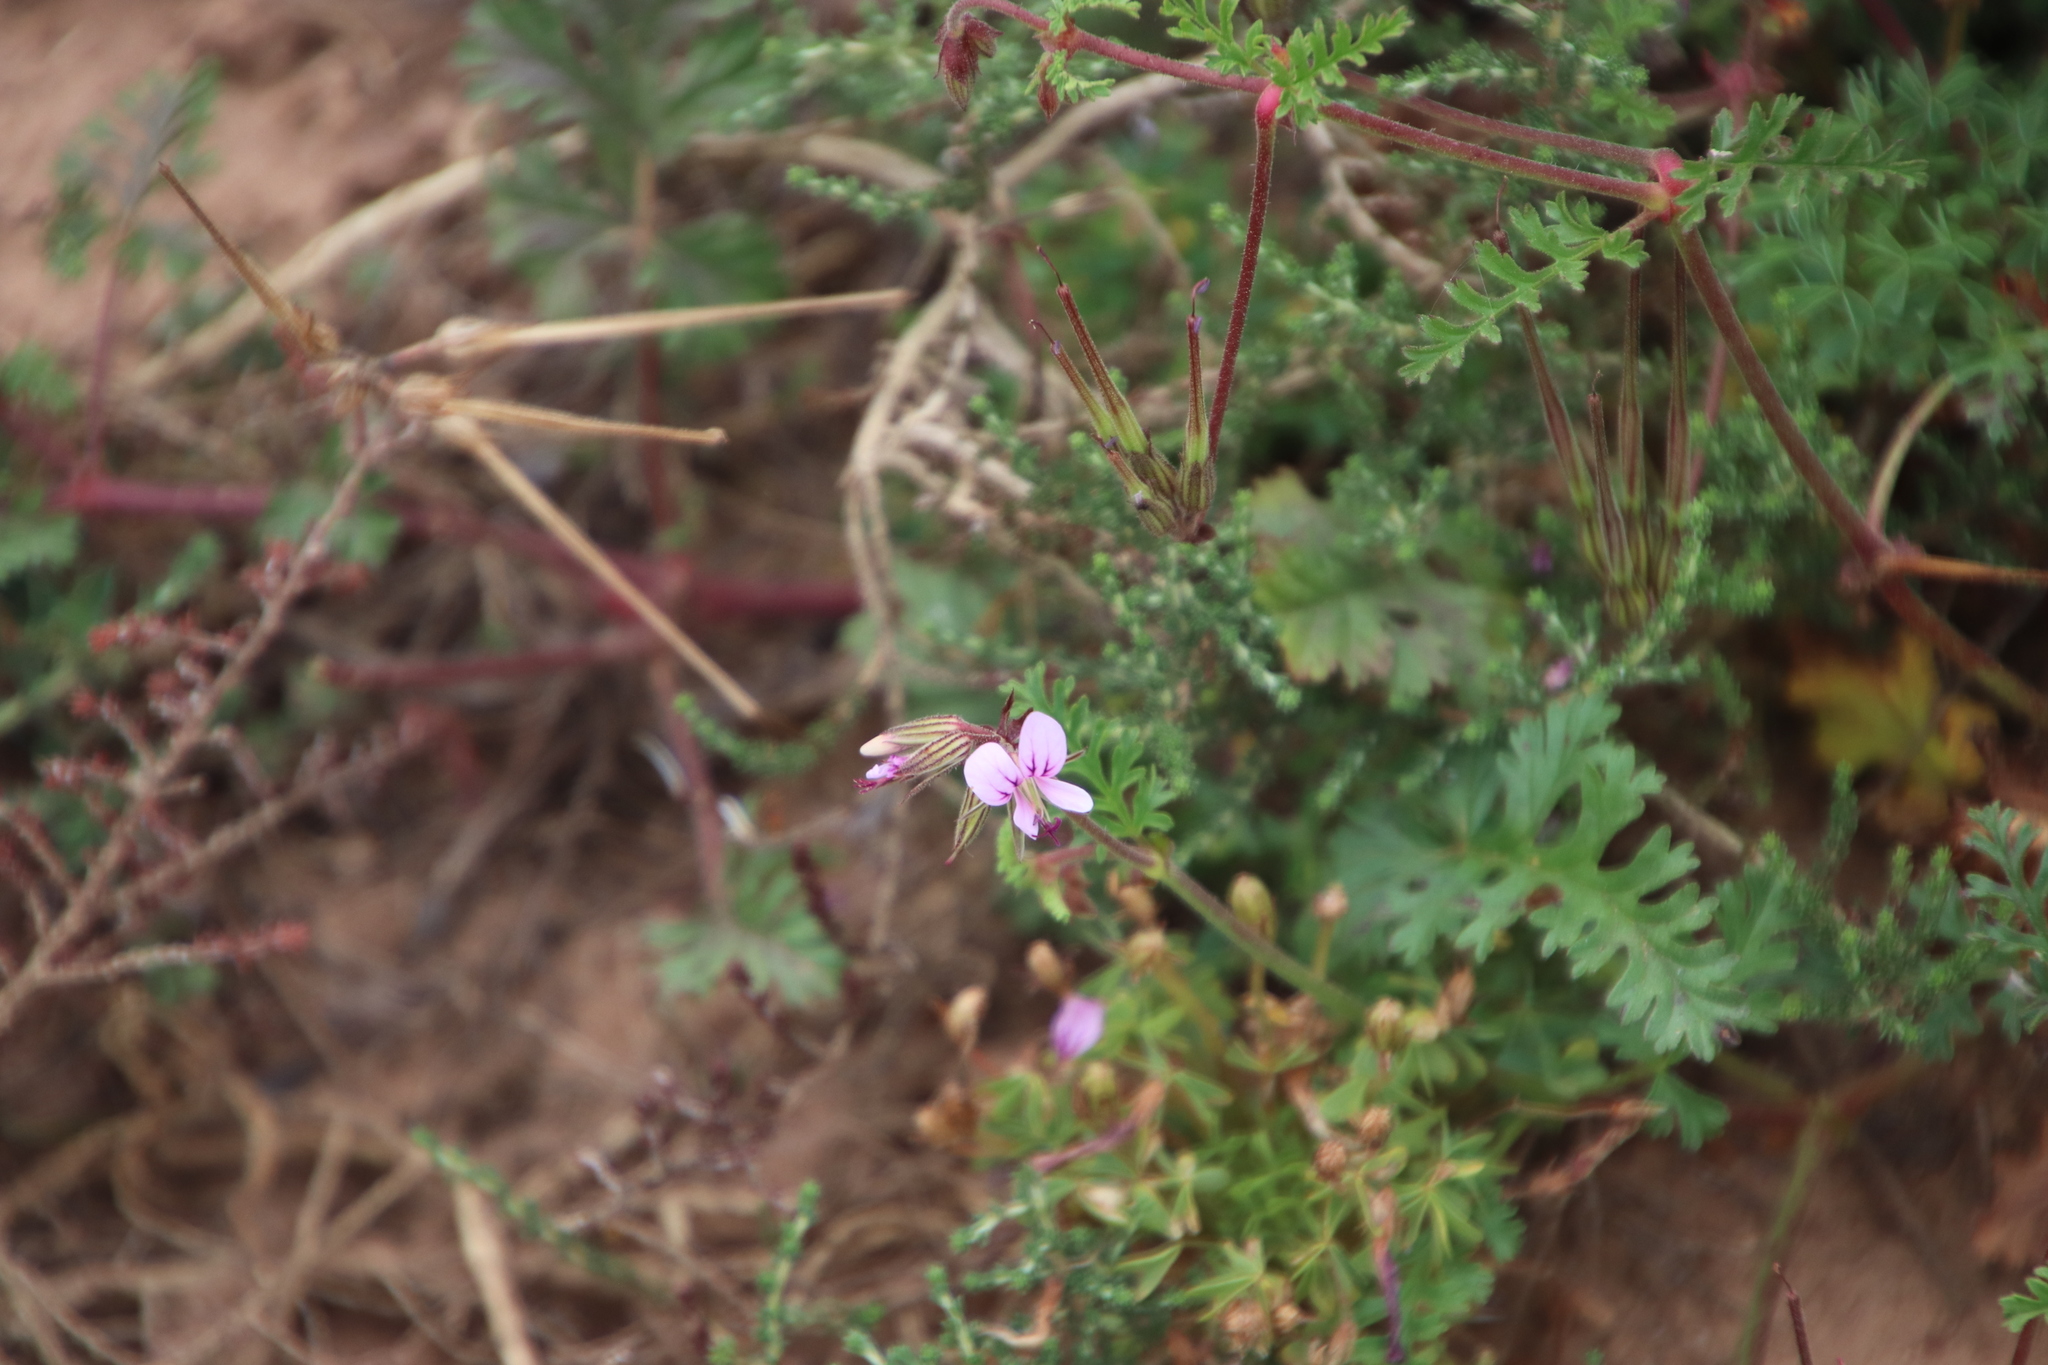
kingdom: Plantae
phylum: Tracheophyta
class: Magnoliopsida
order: Geraniales
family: Geraniaceae
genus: Pelargonium
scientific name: Pelargonium myrrhifolium
